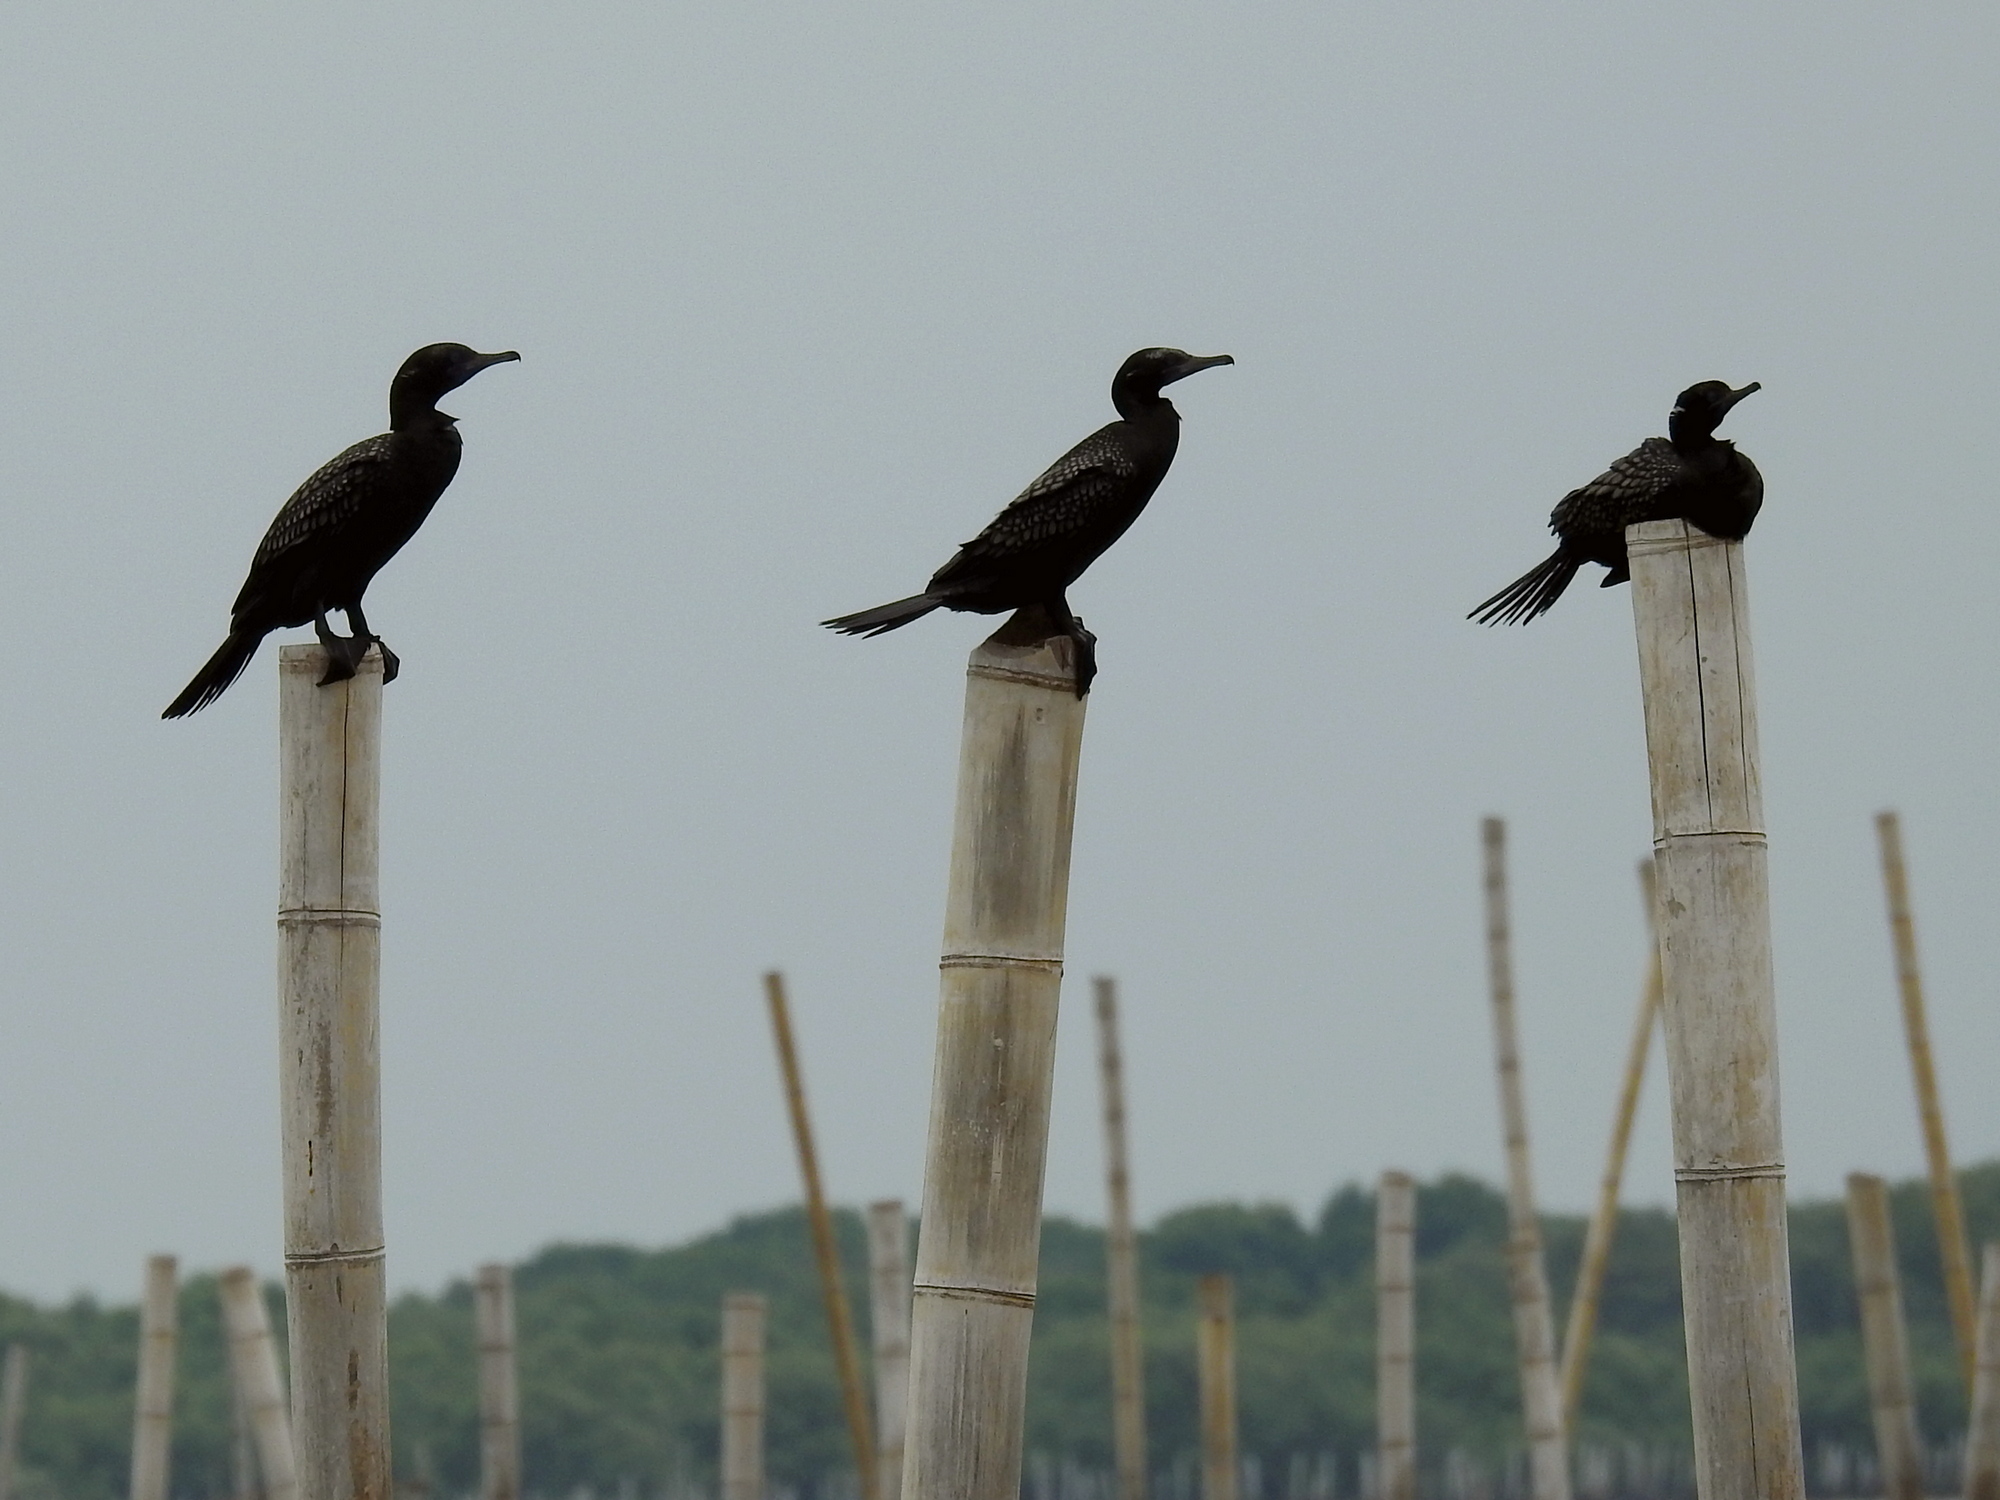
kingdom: Animalia
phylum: Chordata
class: Aves
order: Suliformes
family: Phalacrocoracidae
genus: Phalacrocorax
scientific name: Phalacrocorax sulcirostris
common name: Little black cormorant
